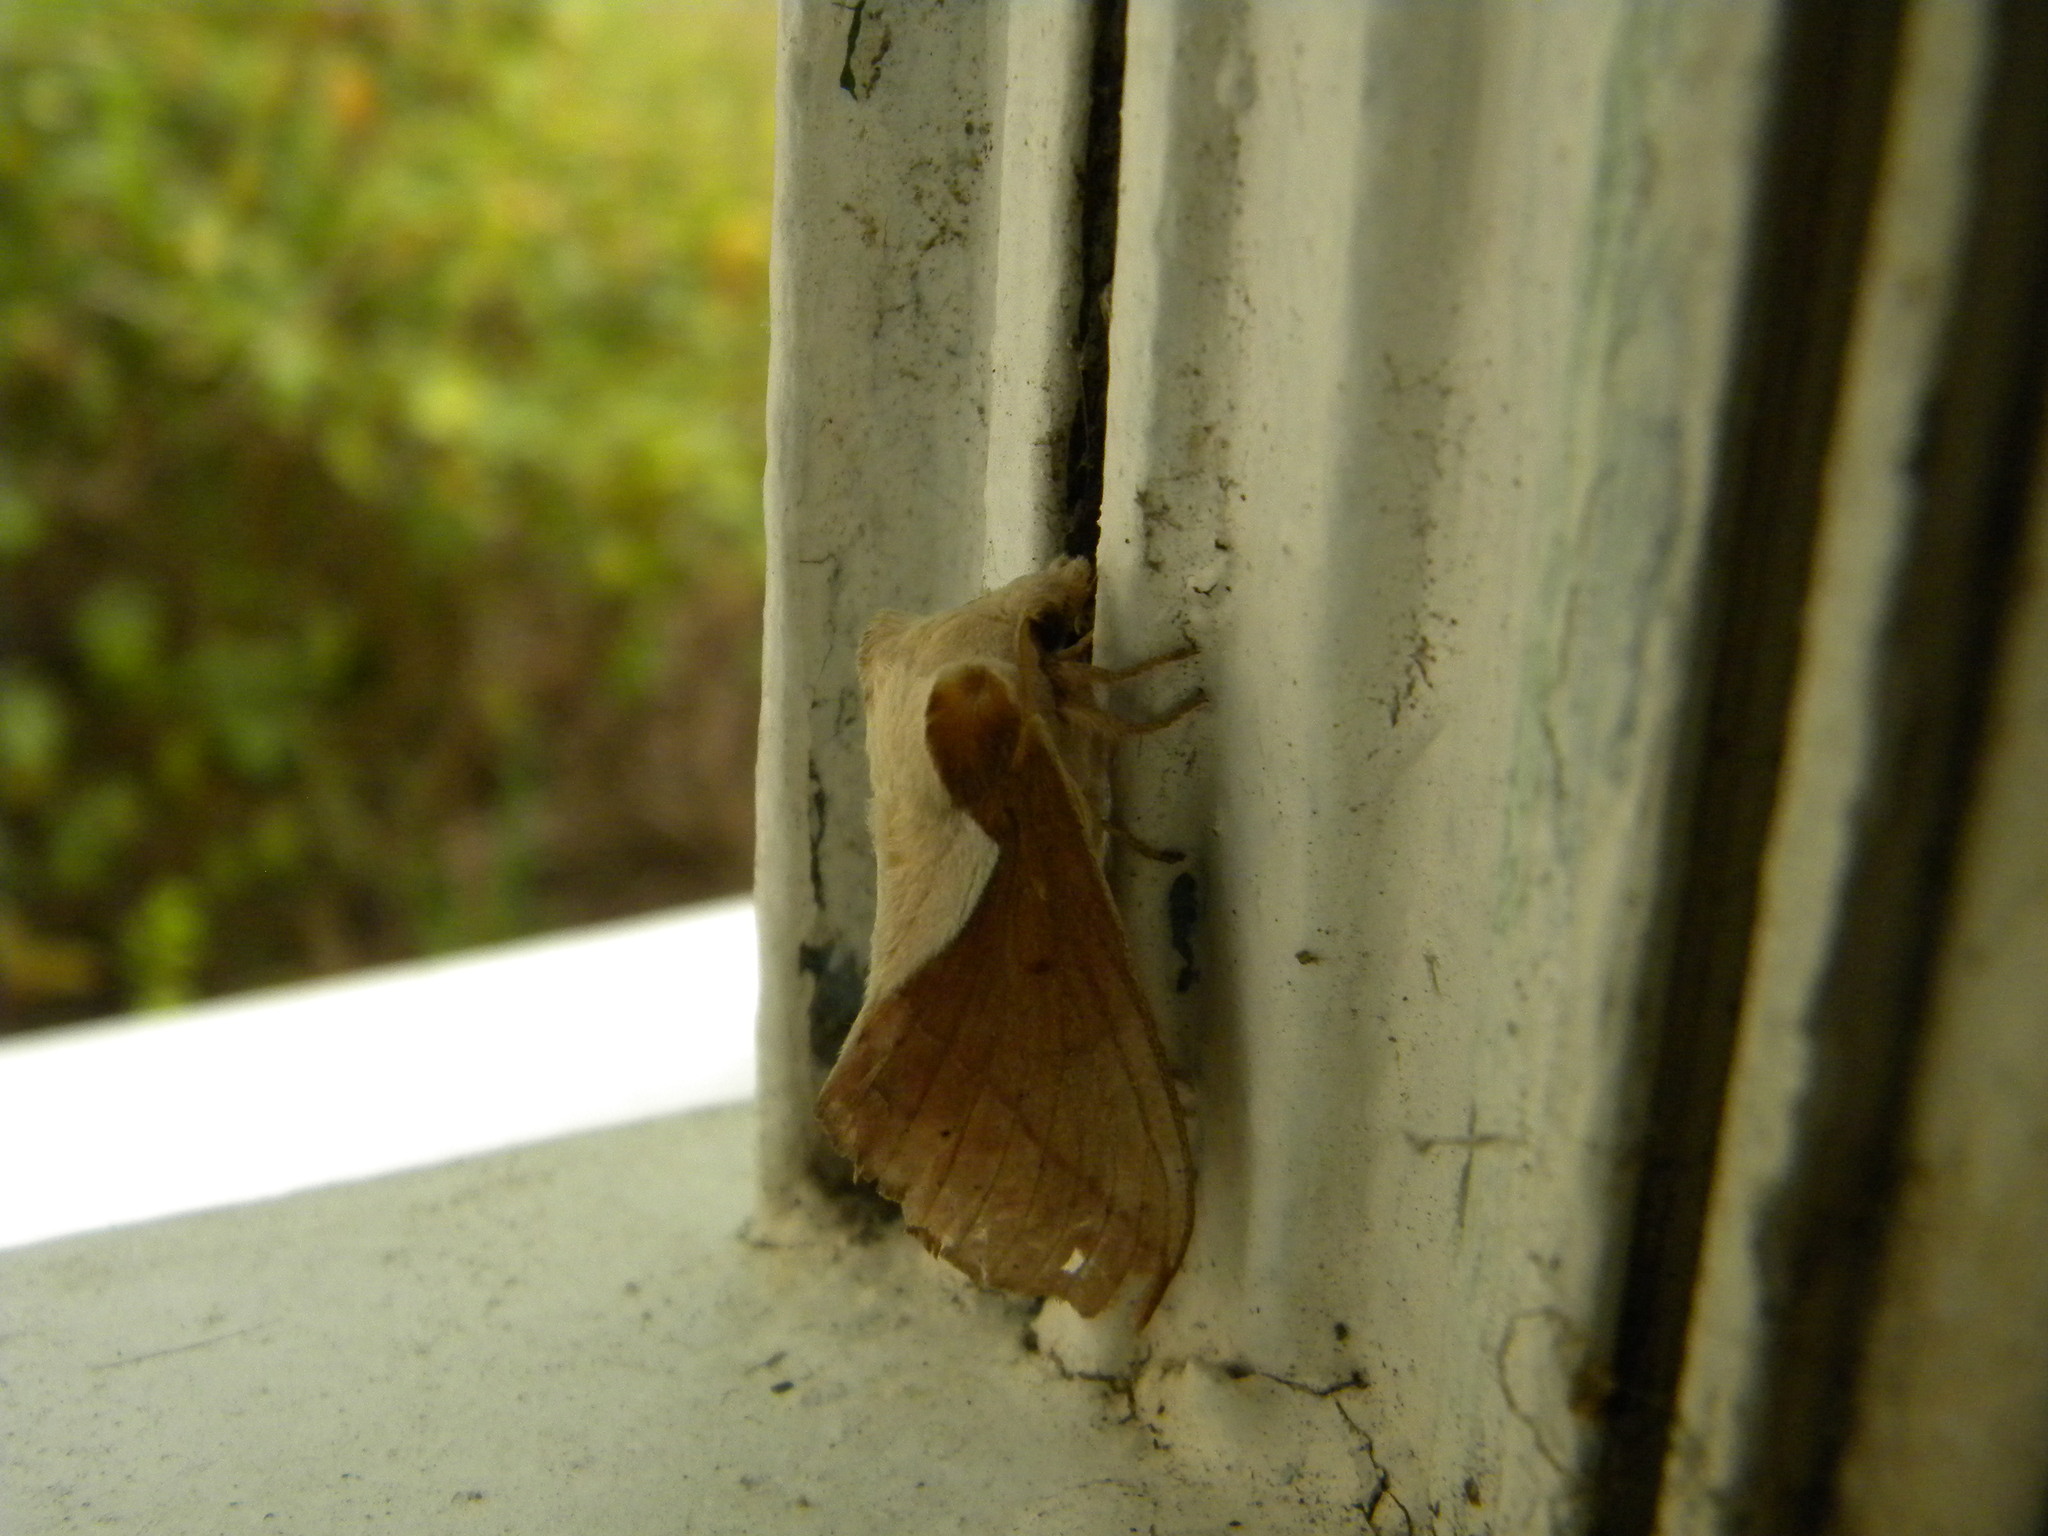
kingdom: Animalia
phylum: Arthropoda
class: Insecta
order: Lepidoptera
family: Lasiocampidae
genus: Stoermeriana
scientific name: Stoermeriana scapulosa
